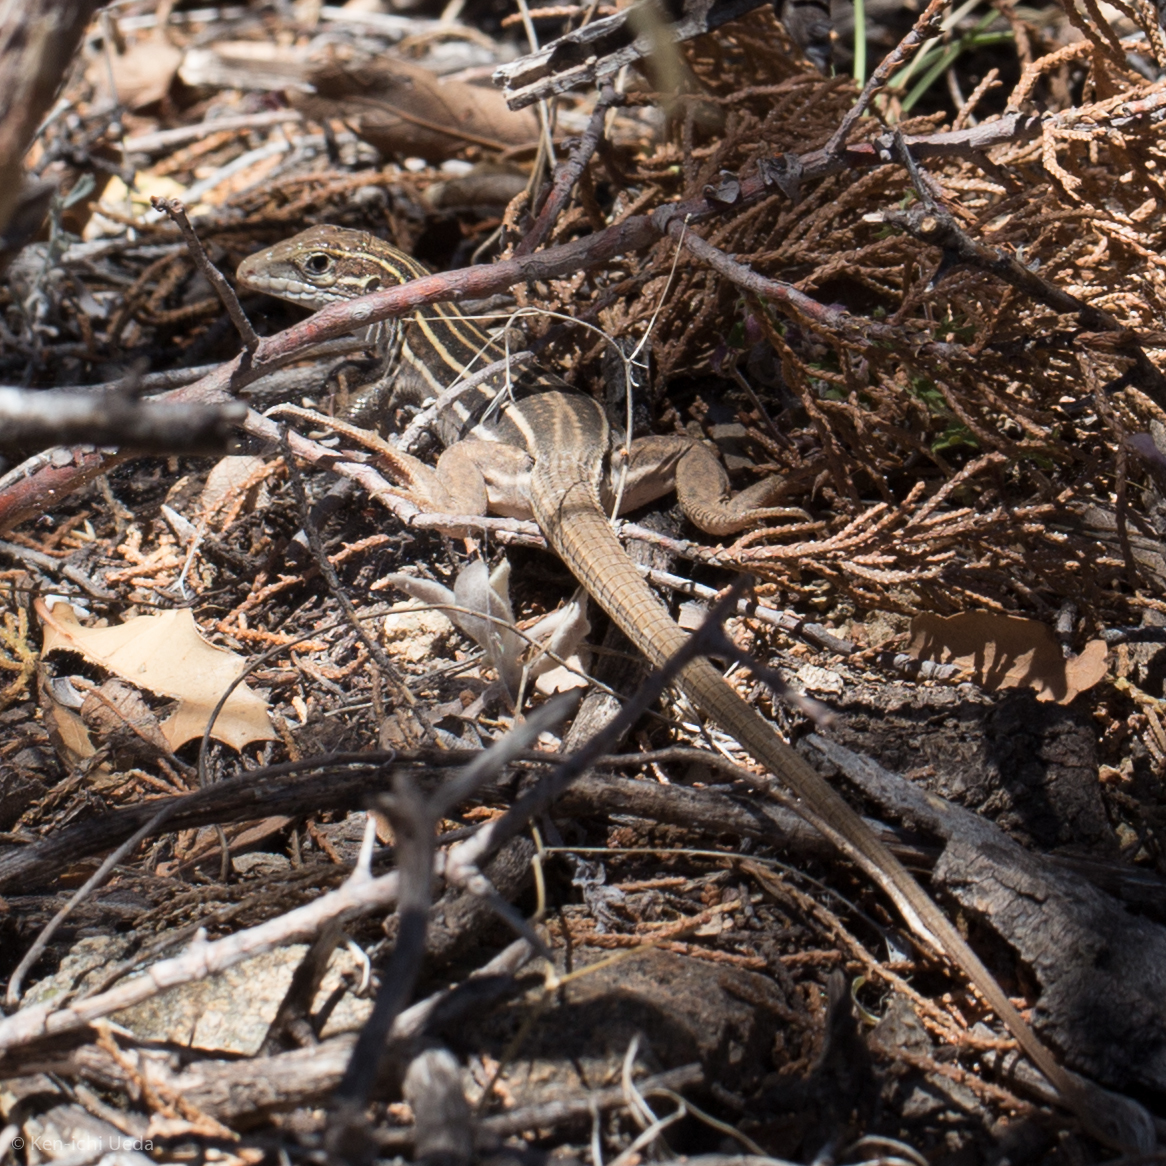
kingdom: Animalia
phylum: Chordata
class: Squamata
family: Teiidae
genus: Aspidoscelis
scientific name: Aspidoscelis sonorae
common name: Sonoran spotted whiptail
